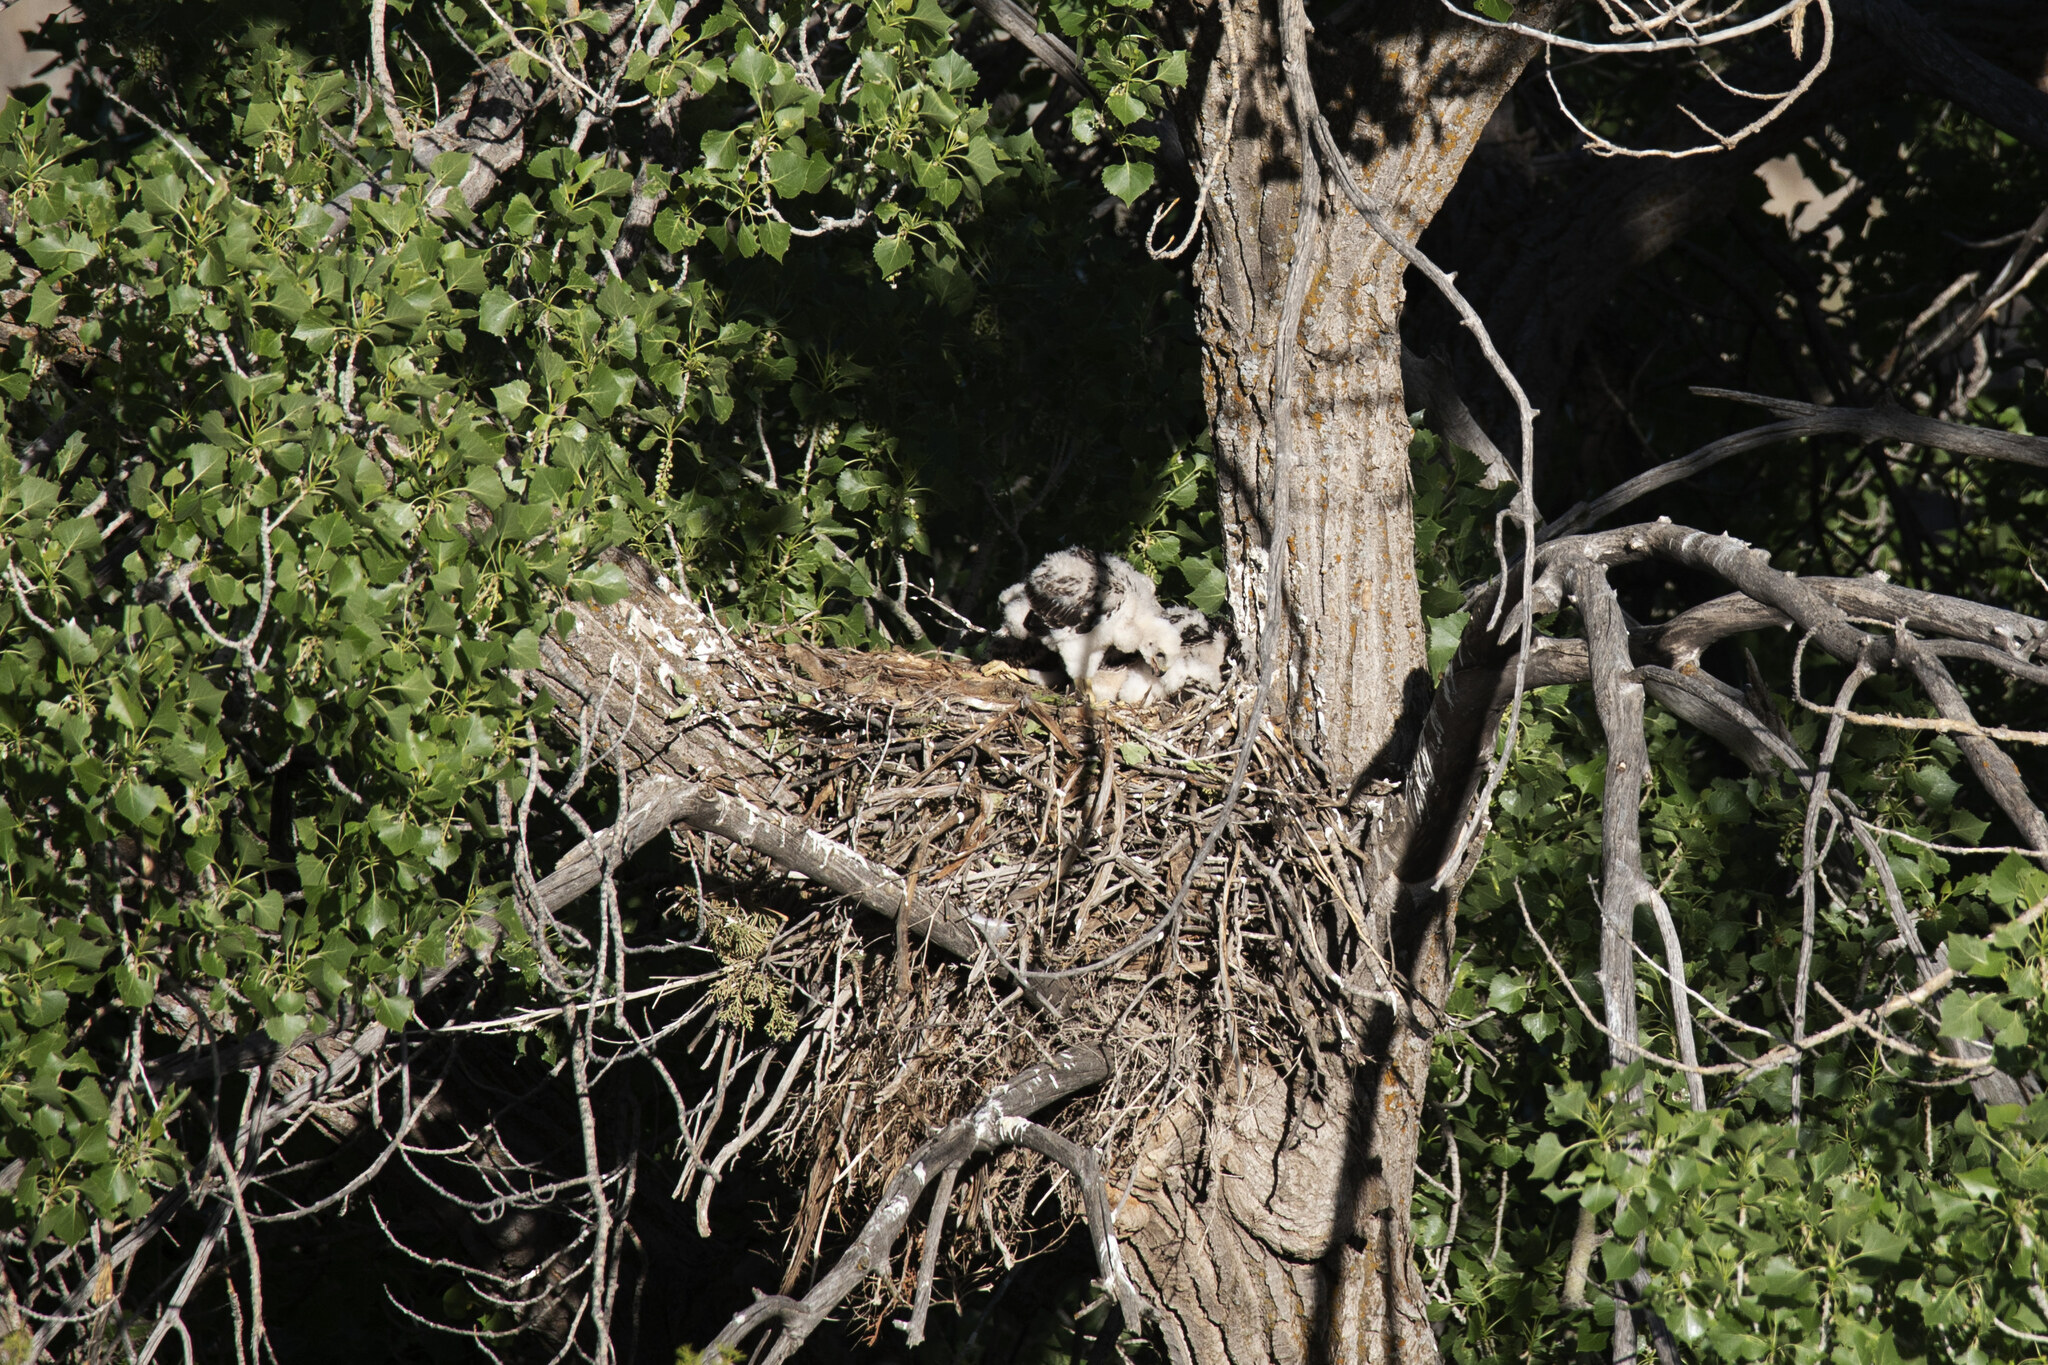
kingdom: Animalia
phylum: Chordata
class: Aves
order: Accipitriformes
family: Accipitridae
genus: Buteo
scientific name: Buteo jamaicensis
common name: Red-tailed hawk
